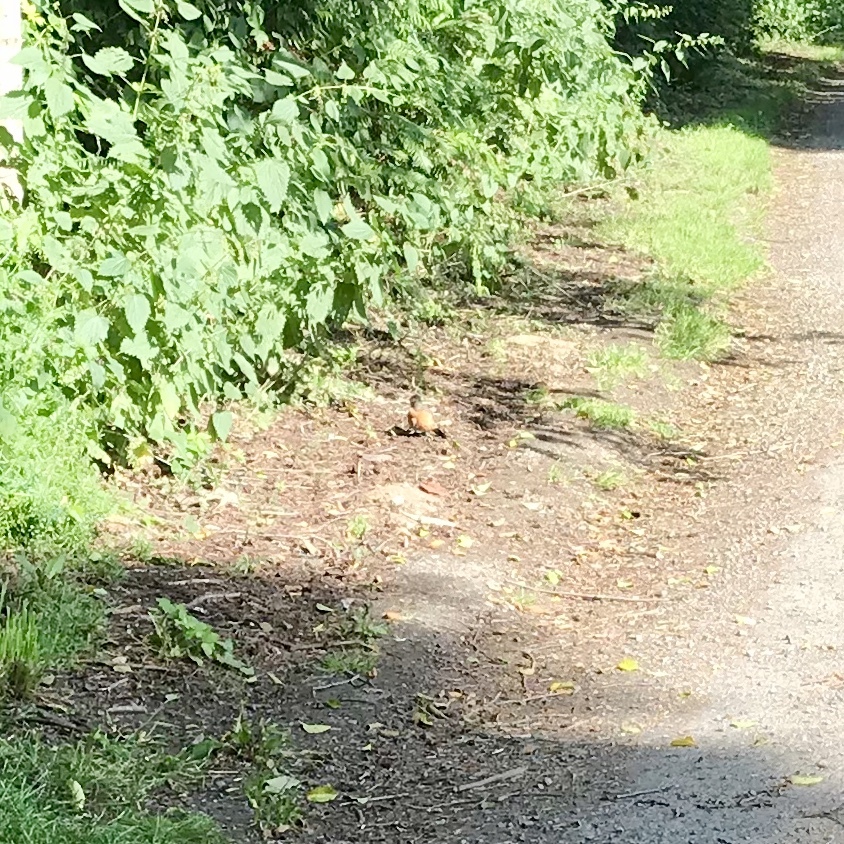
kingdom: Animalia
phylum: Chordata
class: Aves
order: Passeriformes
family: Turdidae
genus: Turdus
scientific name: Turdus migratorius
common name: American robin
